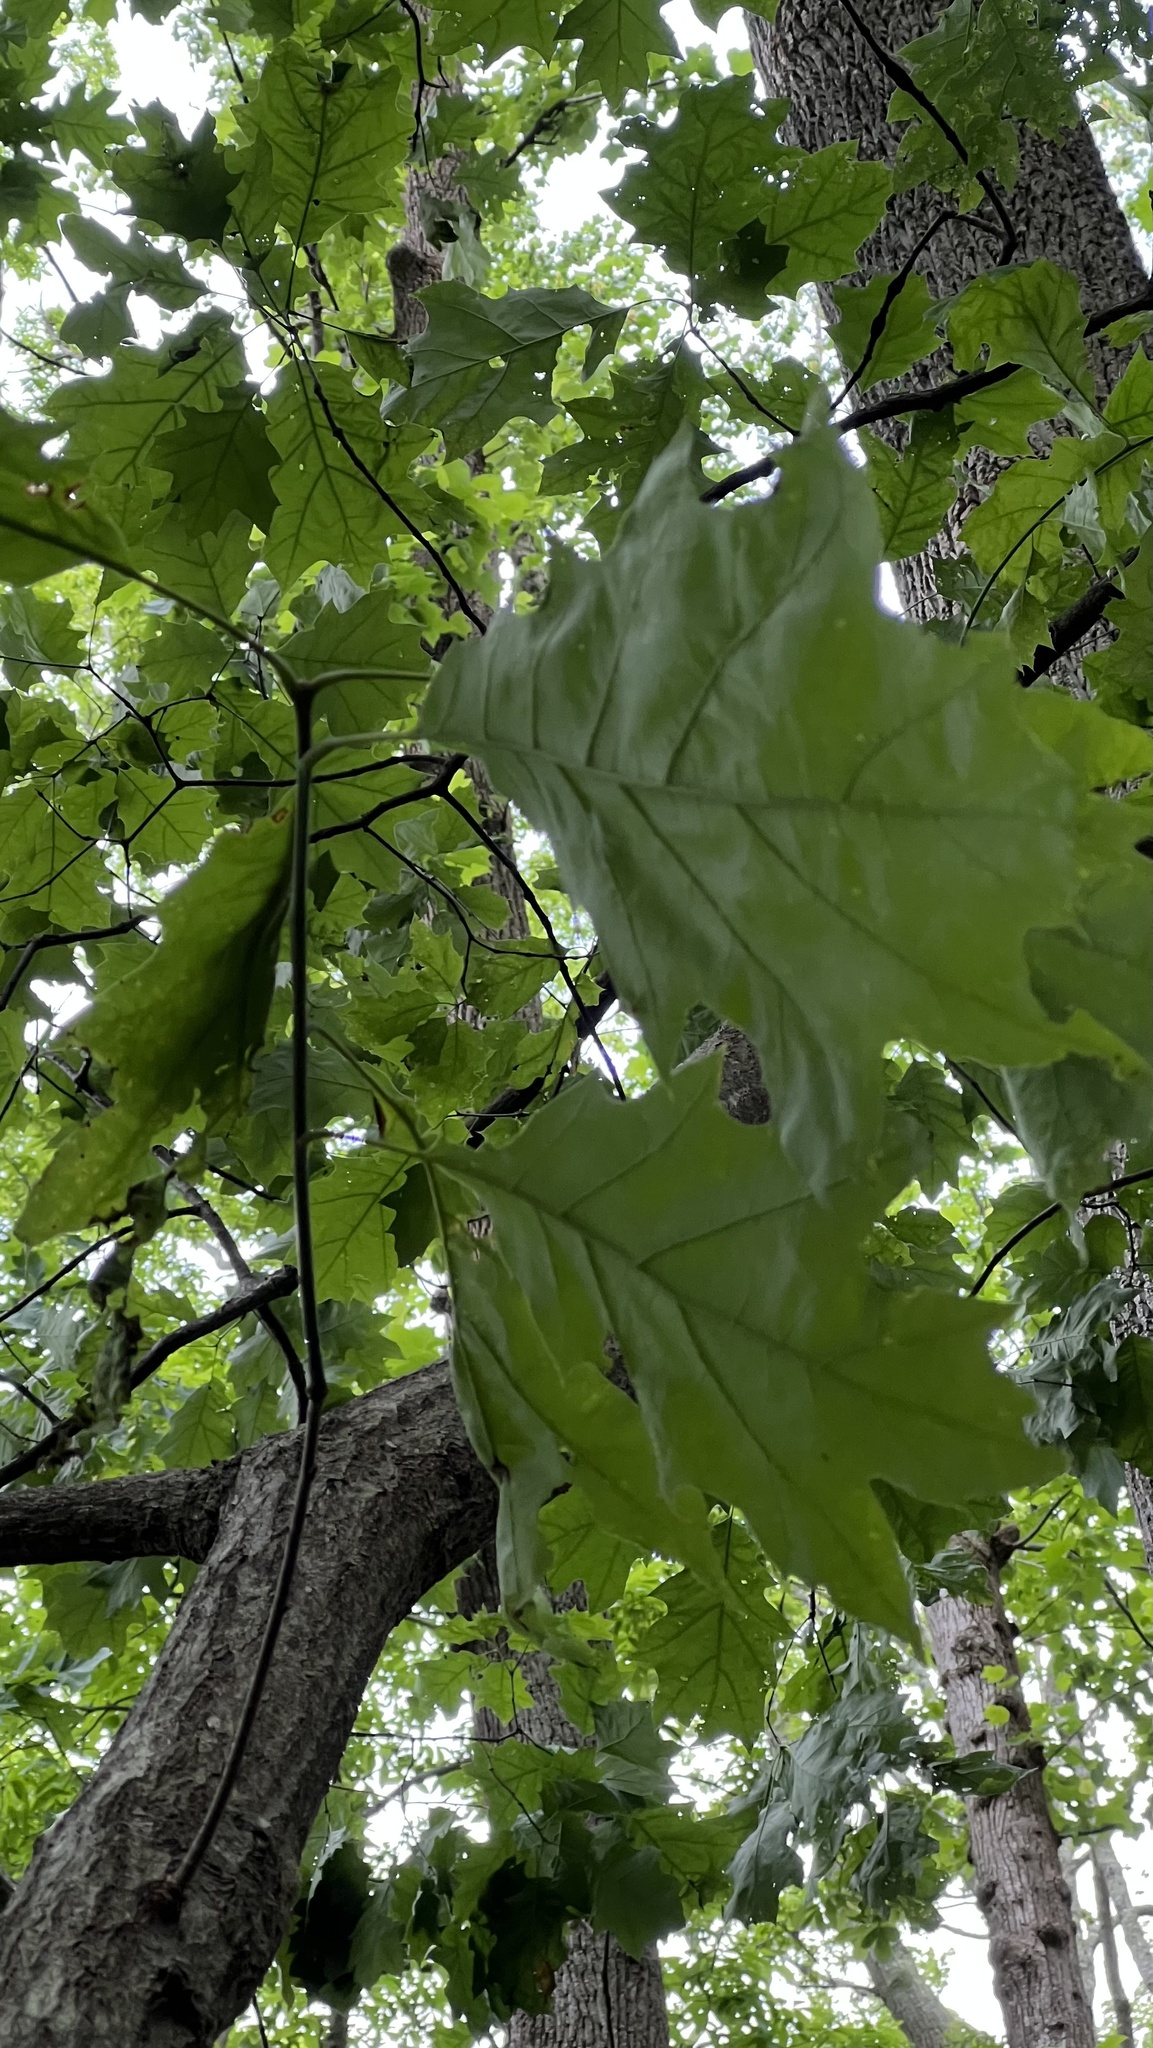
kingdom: Plantae
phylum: Tracheophyta
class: Magnoliopsida
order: Fagales
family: Fagaceae
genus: Quercus
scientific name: Quercus rubra
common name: Red oak
